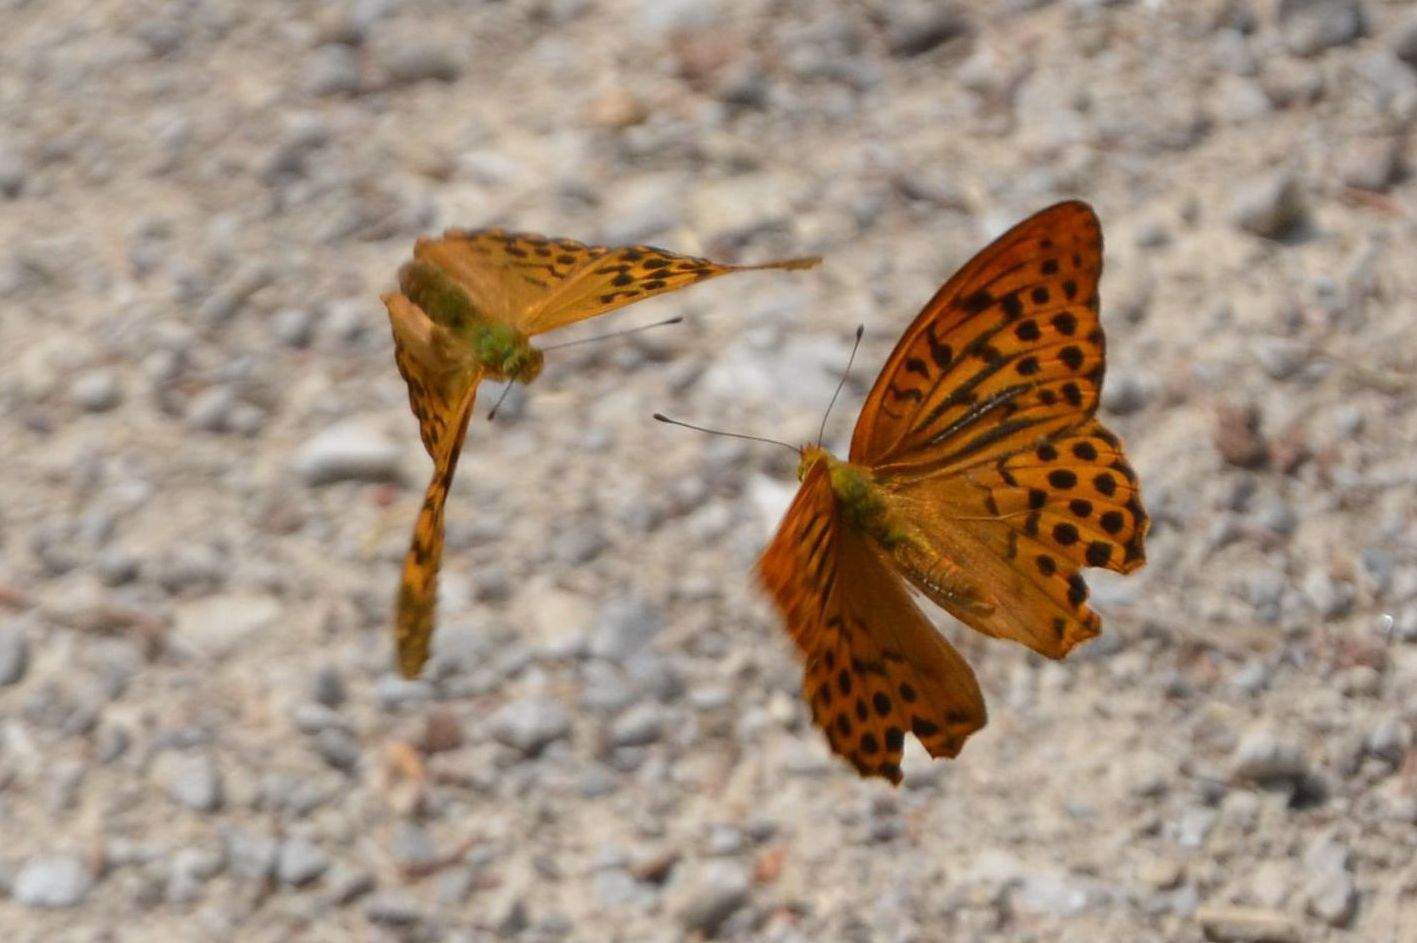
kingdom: Animalia
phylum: Arthropoda
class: Insecta
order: Lepidoptera
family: Nymphalidae
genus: Argynnis
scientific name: Argynnis paphia
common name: Silver-washed fritillary
